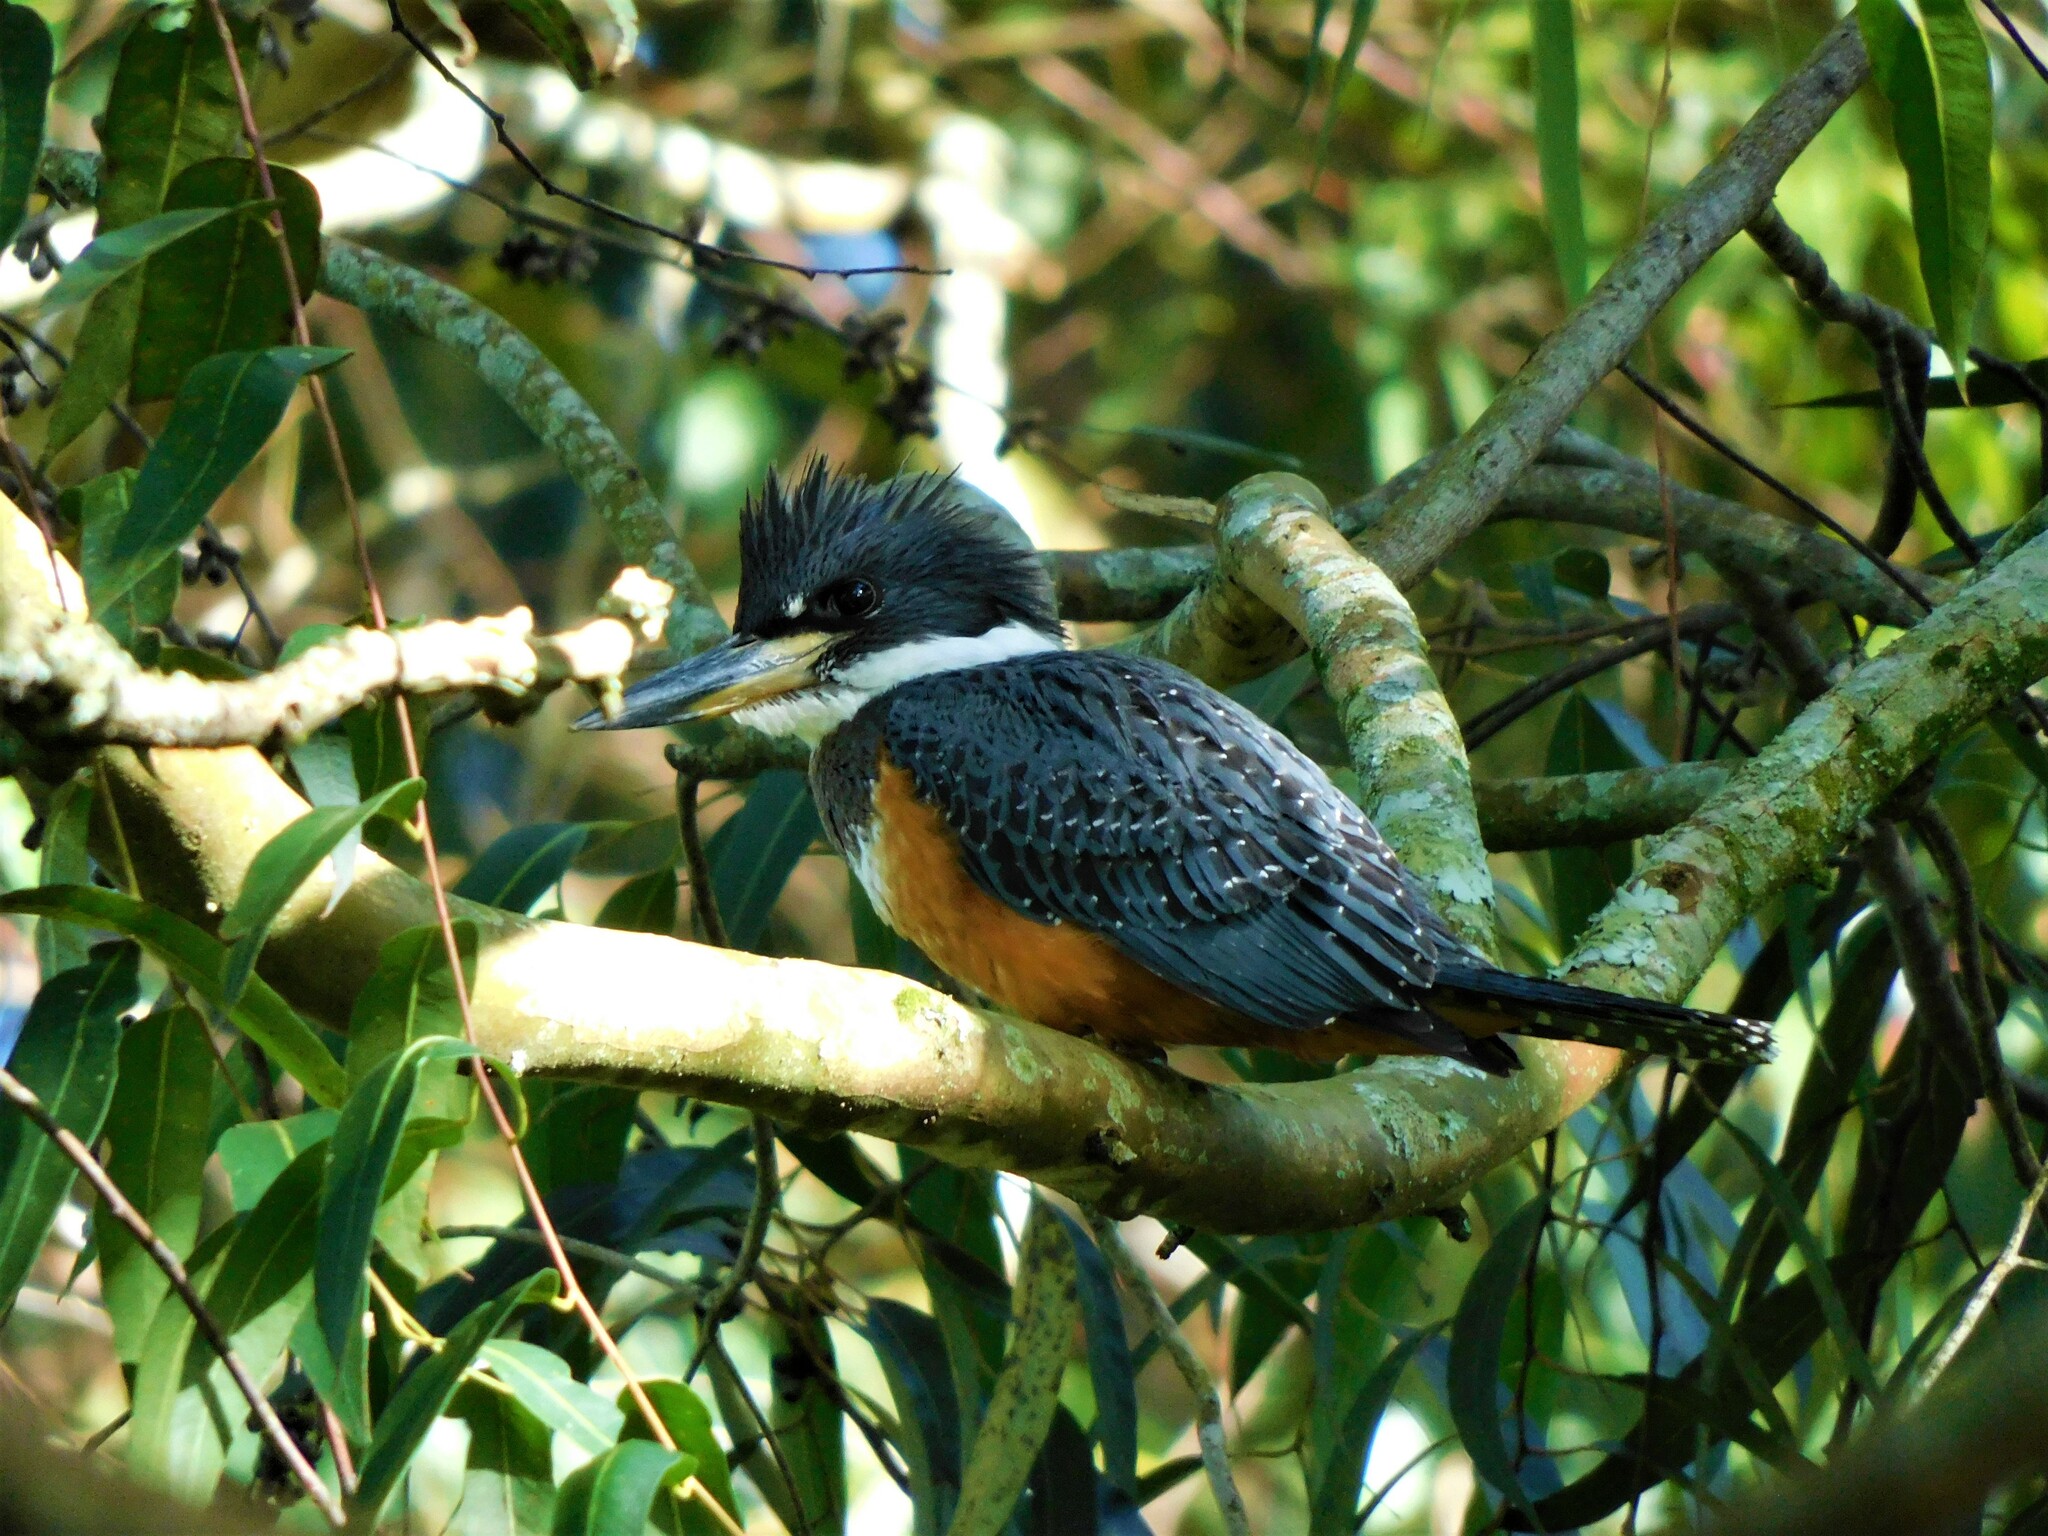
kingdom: Animalia
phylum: Chordata
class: Aves
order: Coraciiformes
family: Alcedinidae
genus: Megaceryle
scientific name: Megaceryle torquata
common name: Ringed kingfisher
